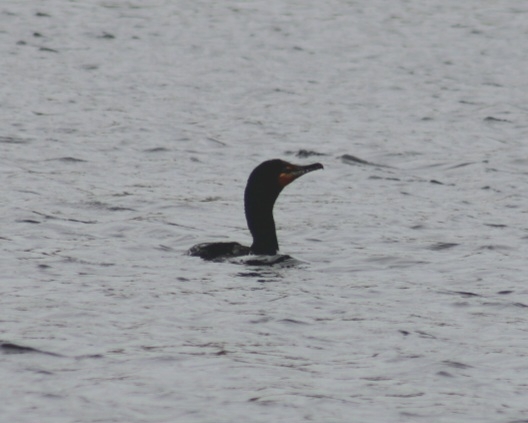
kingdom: Animalia
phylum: Chordata
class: Aves
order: Suliformes
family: Phalacrocoracidae
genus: Phalacrocorax
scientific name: Phalacrocorax auritus
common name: Double-crested cormorant
